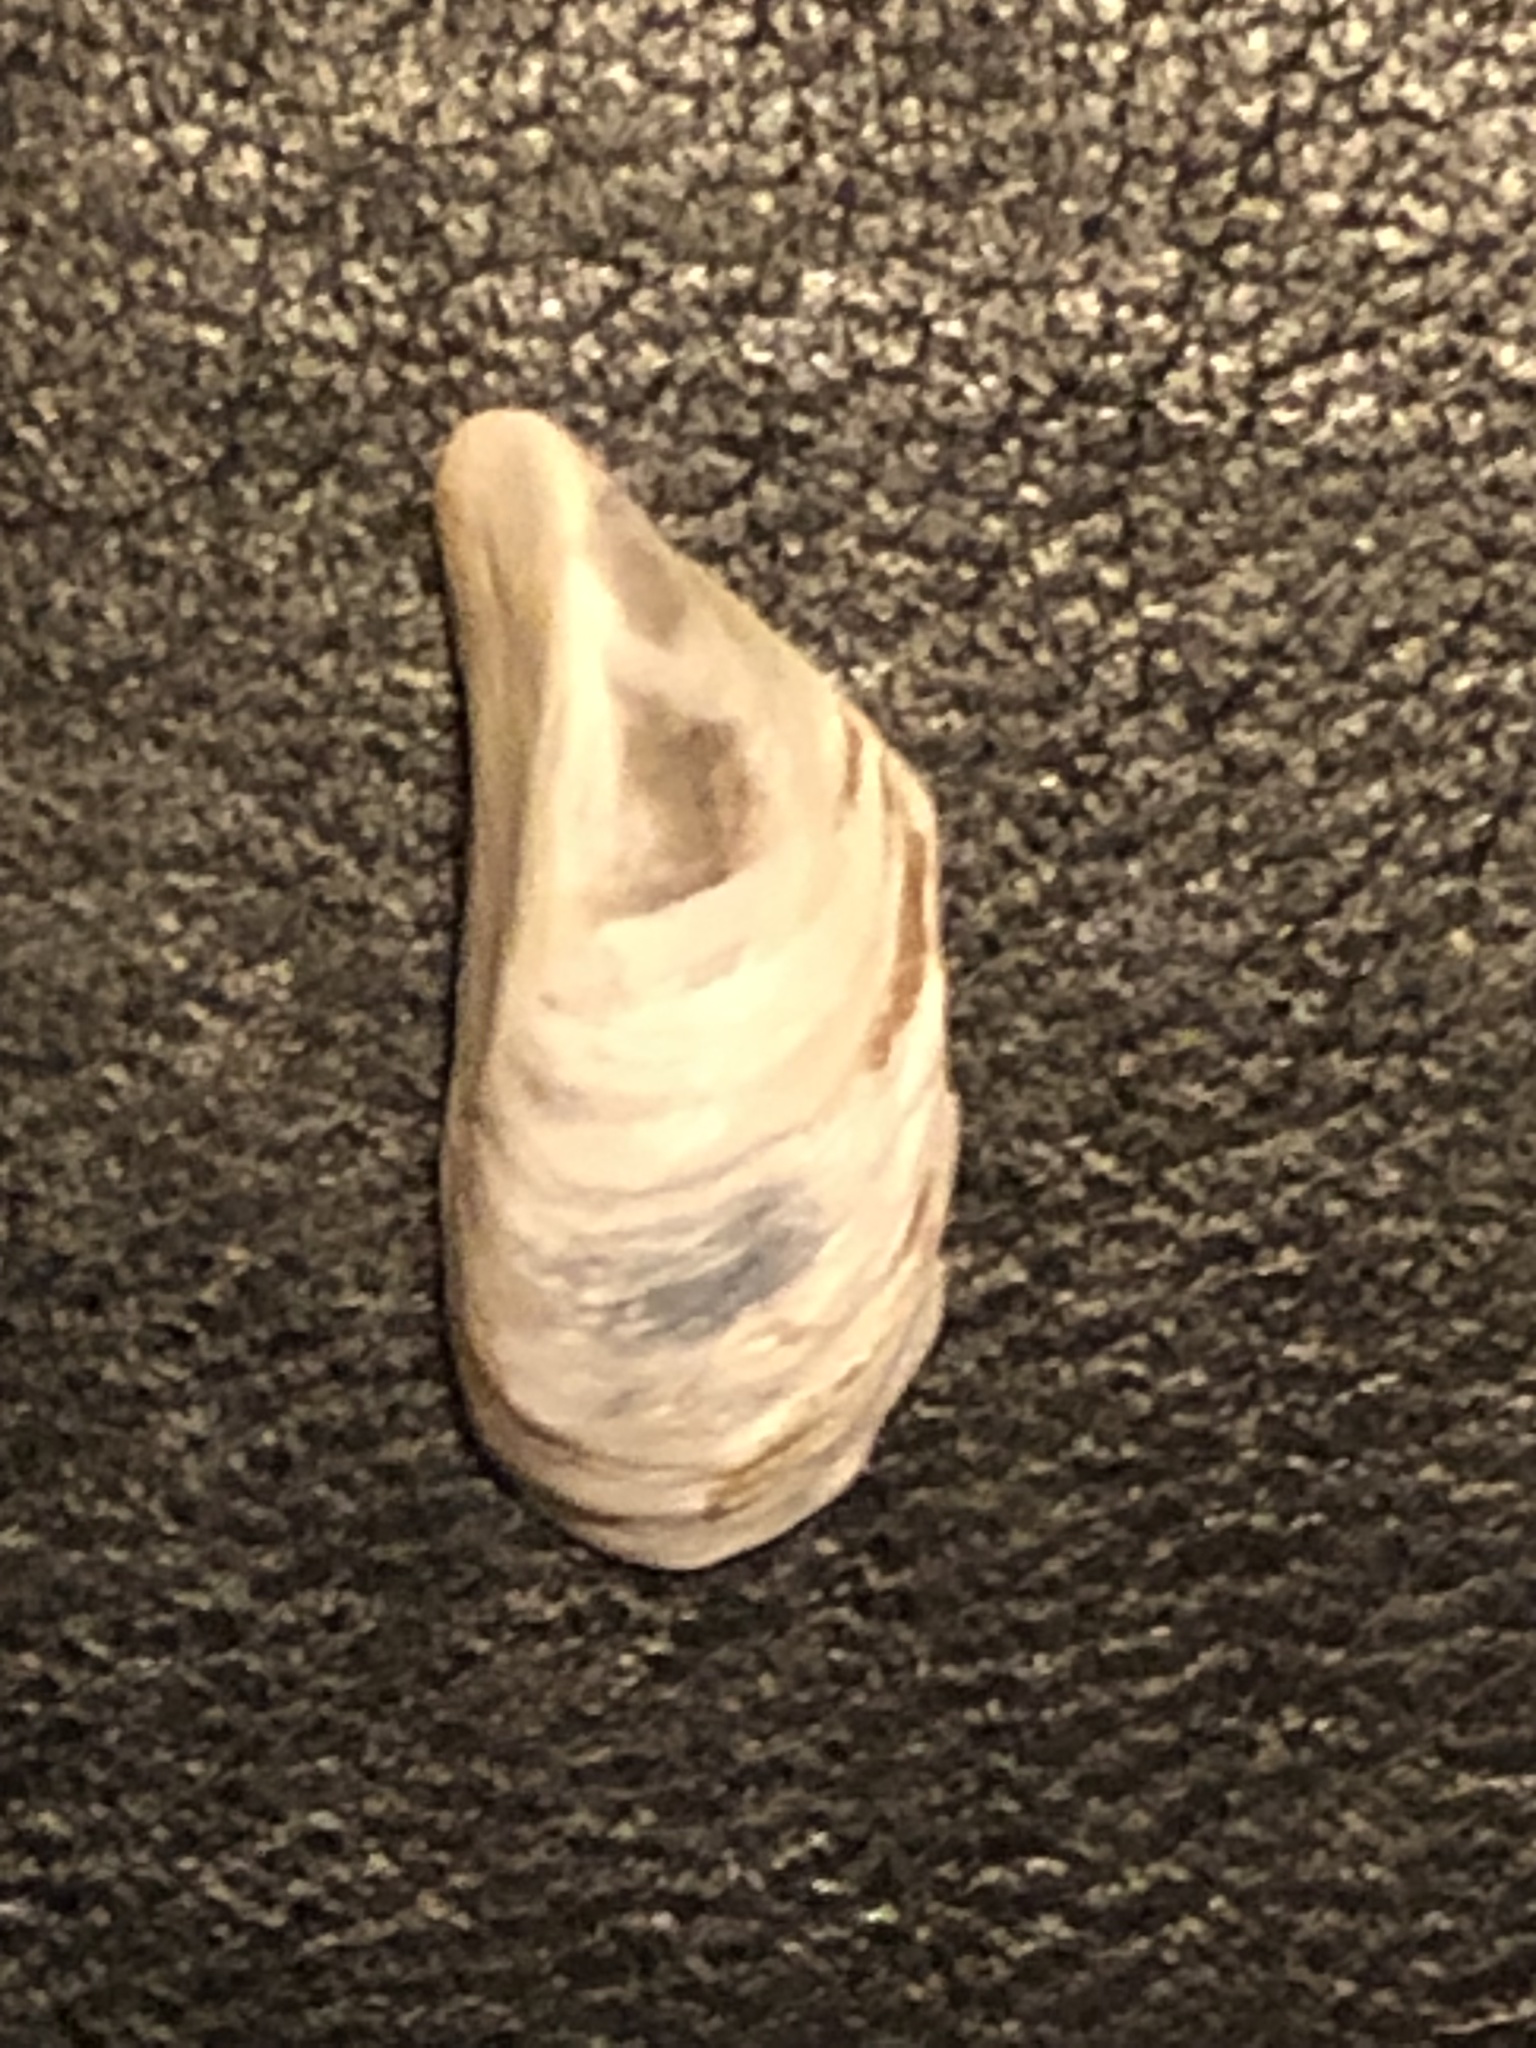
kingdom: Animalia
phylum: Mollusca
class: Bivalvia
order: Myida
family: Dreissenidae
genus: Dreissena
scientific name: Dreissena polymorpha
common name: Zebra mussel
